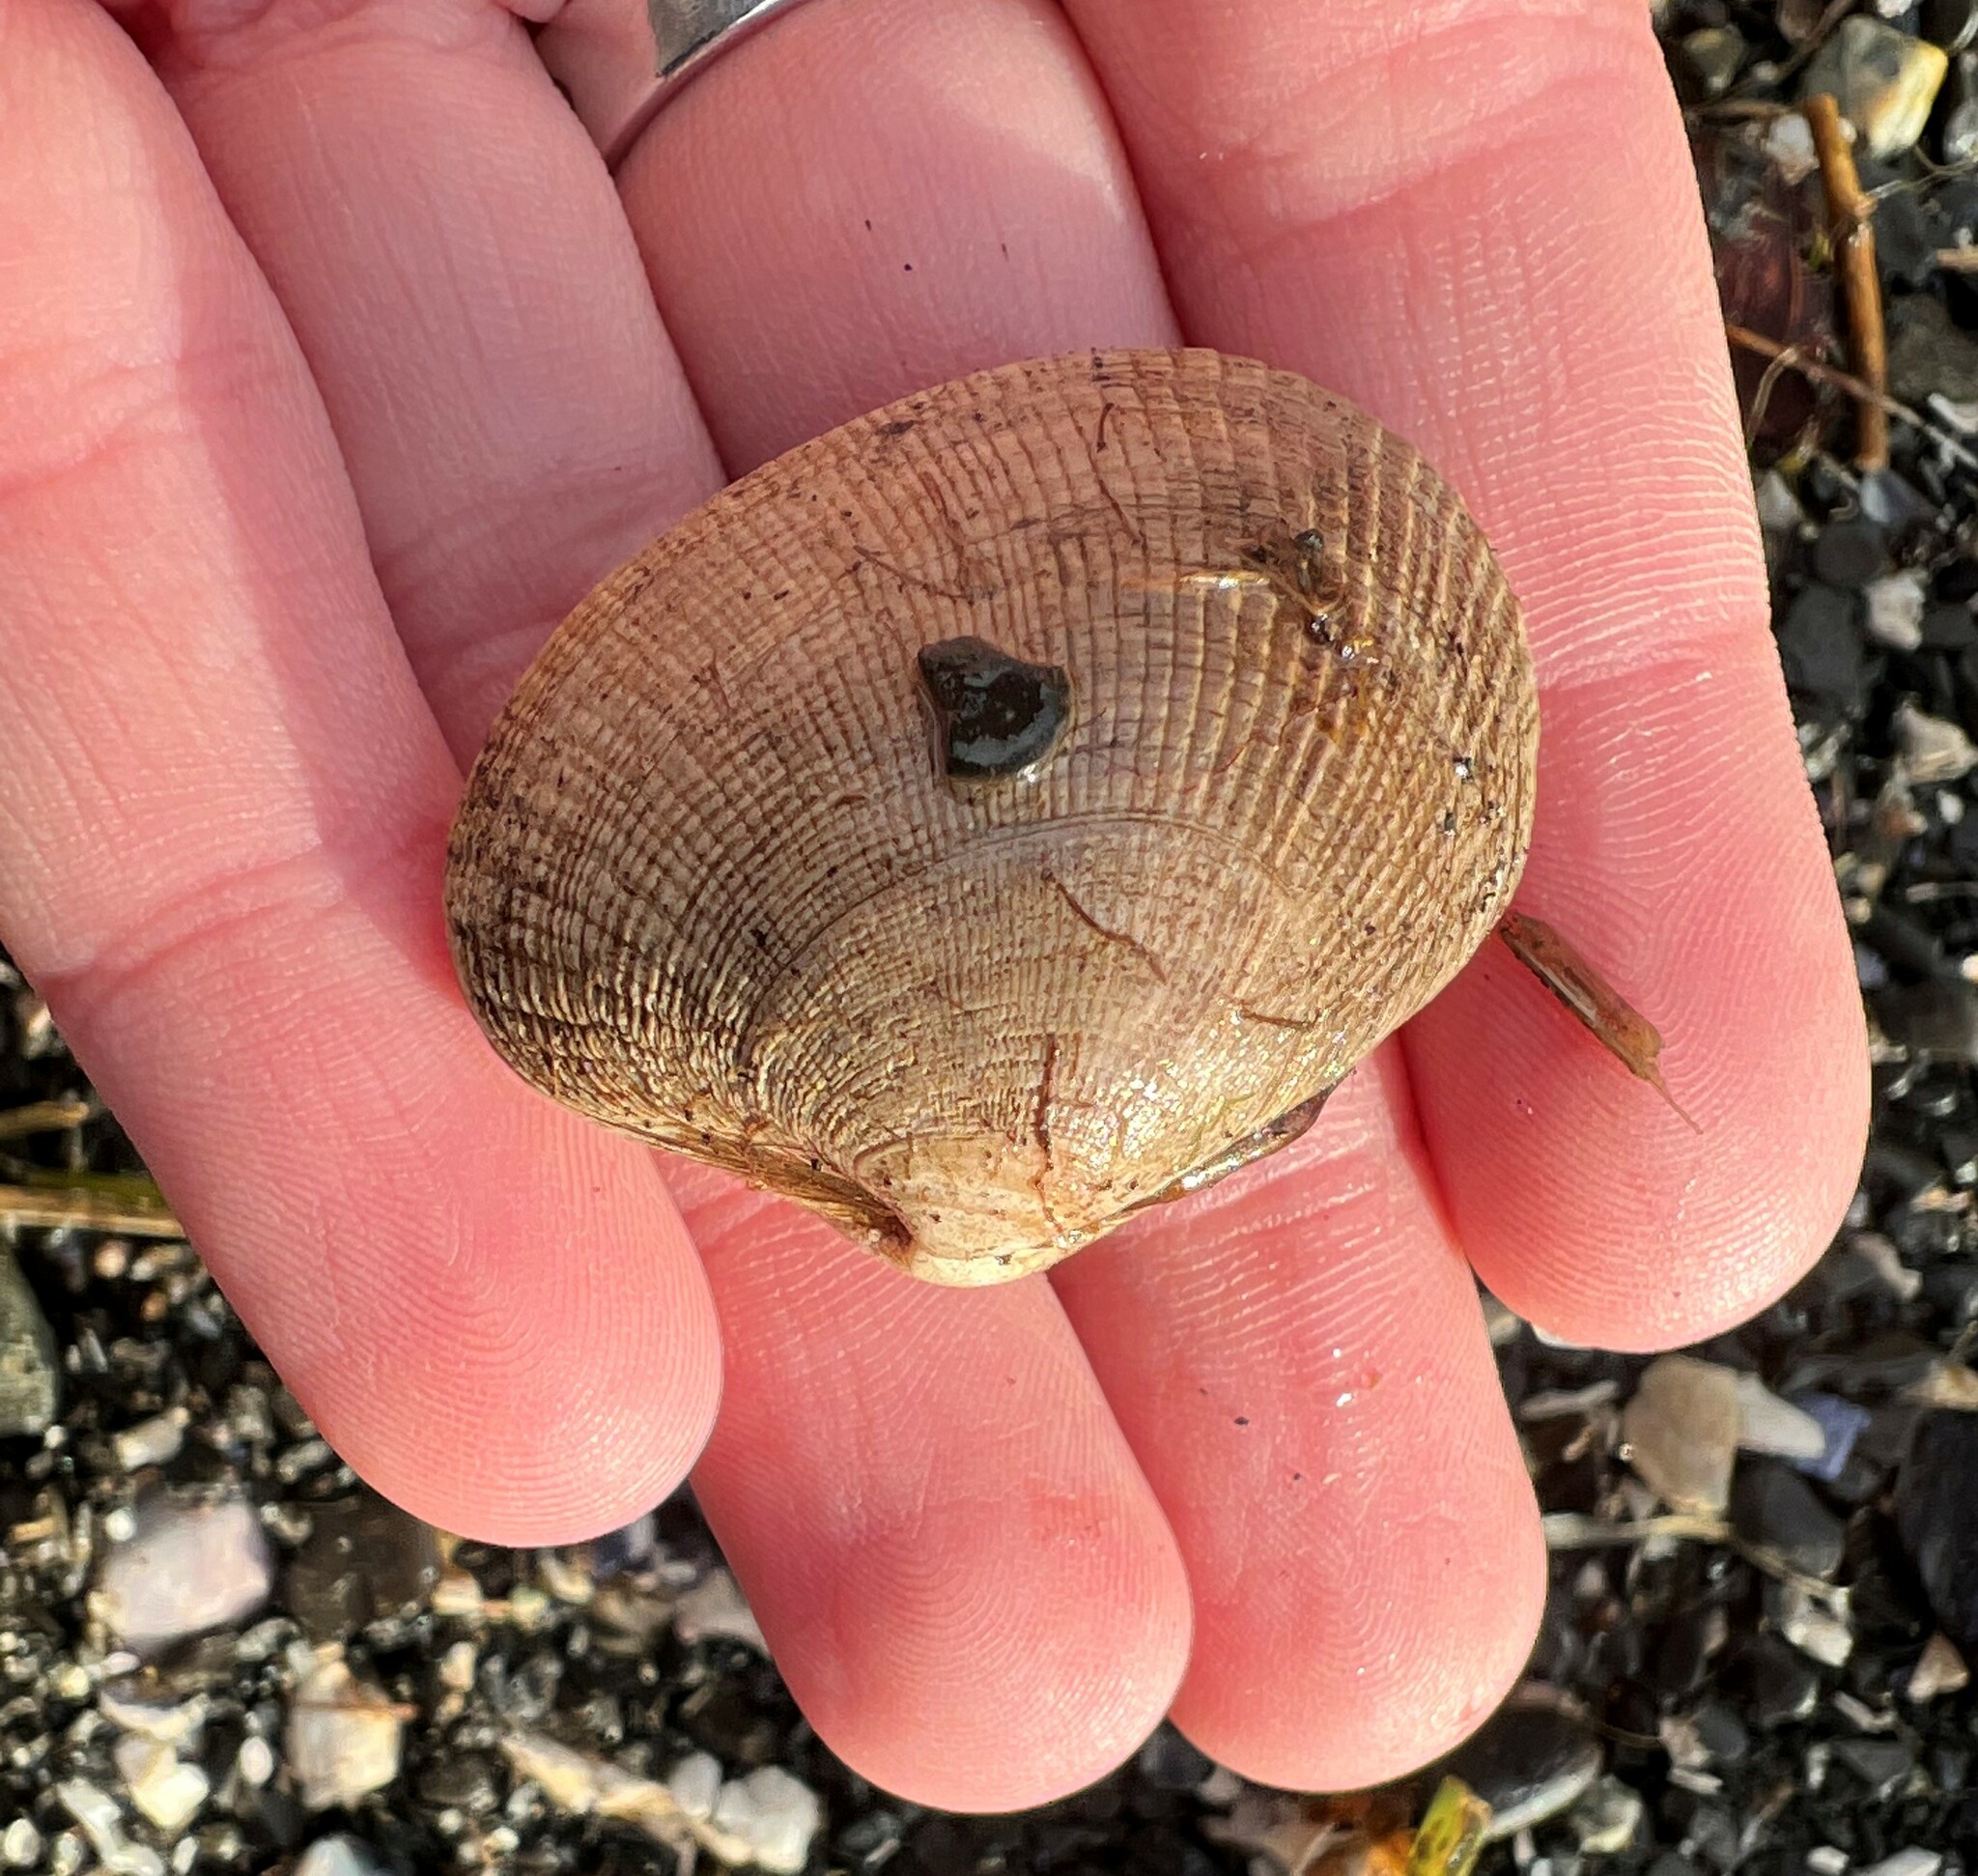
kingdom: Animalia
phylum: Mollusca
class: Bivalvia
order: Venerida
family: Veneridae
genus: Ruditapes
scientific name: Ruditapes philippinarum
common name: Manila clam
